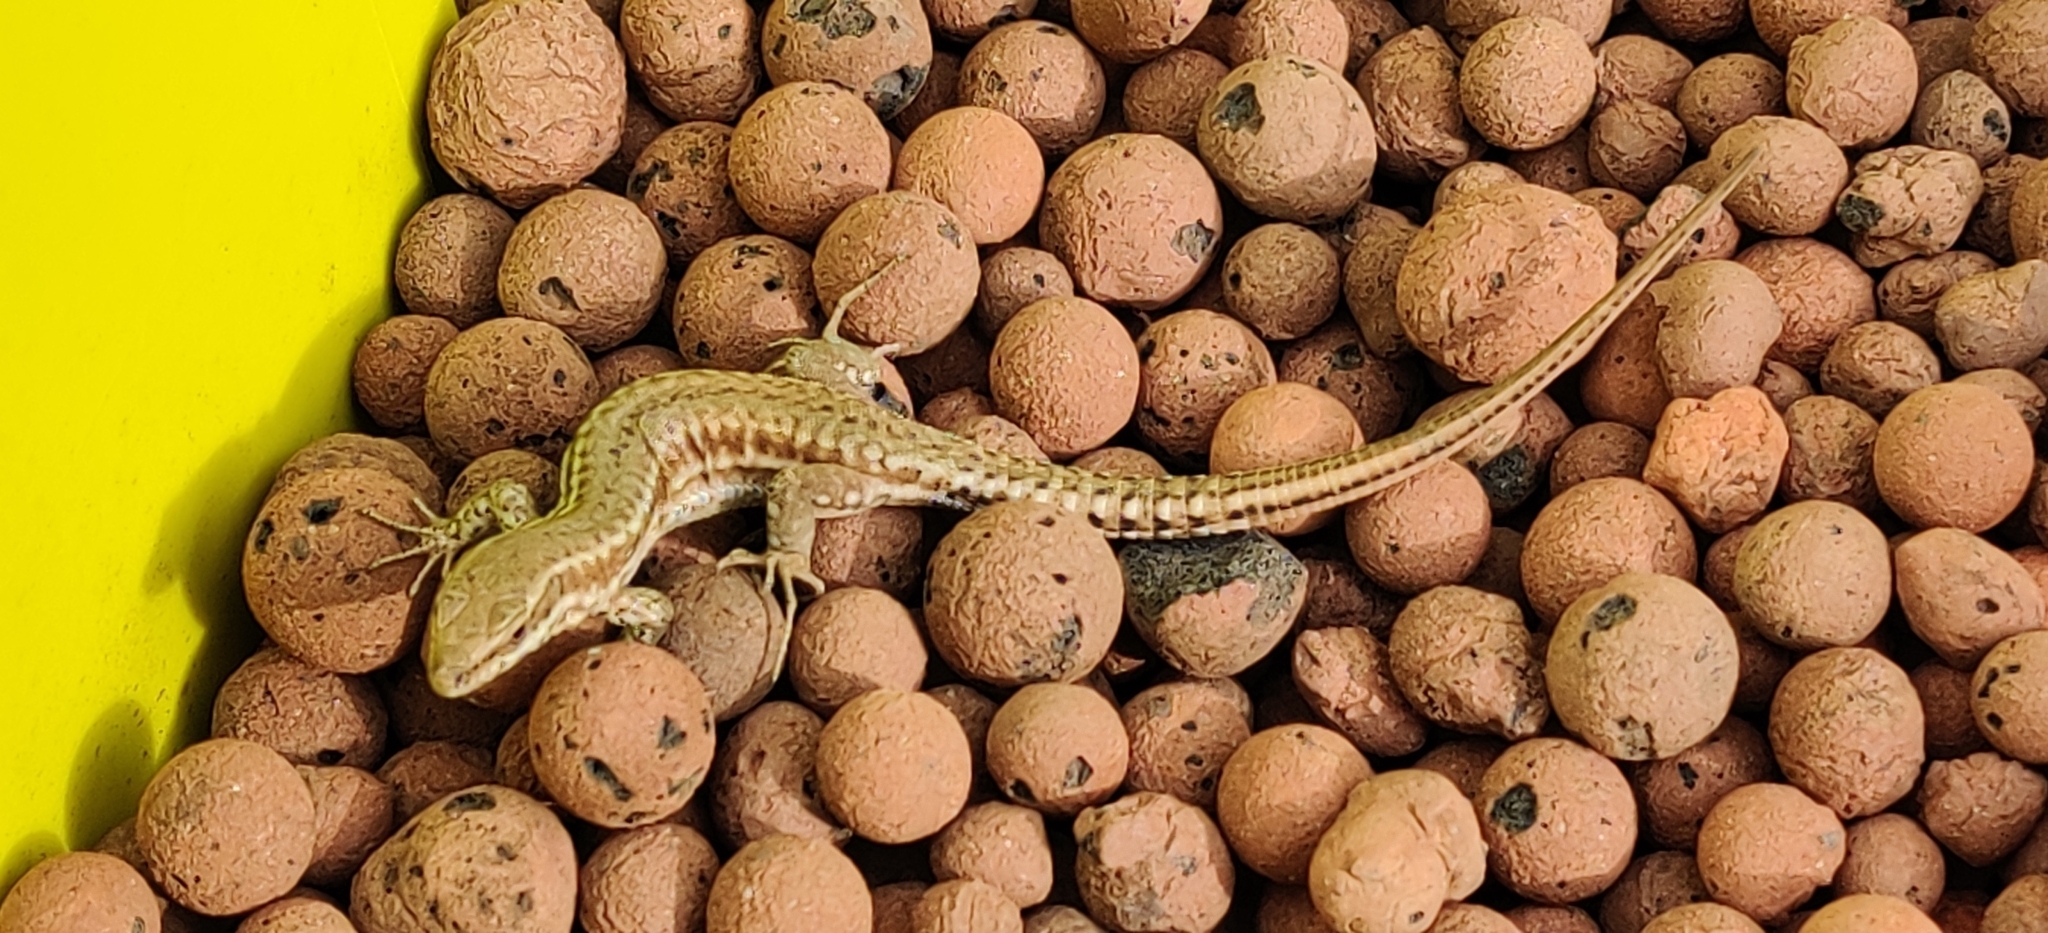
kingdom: Animalia
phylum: Chordata
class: Squamata
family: Lacertidae
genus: Podarcis
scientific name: Podarcis muralis
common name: Common wall lizard
